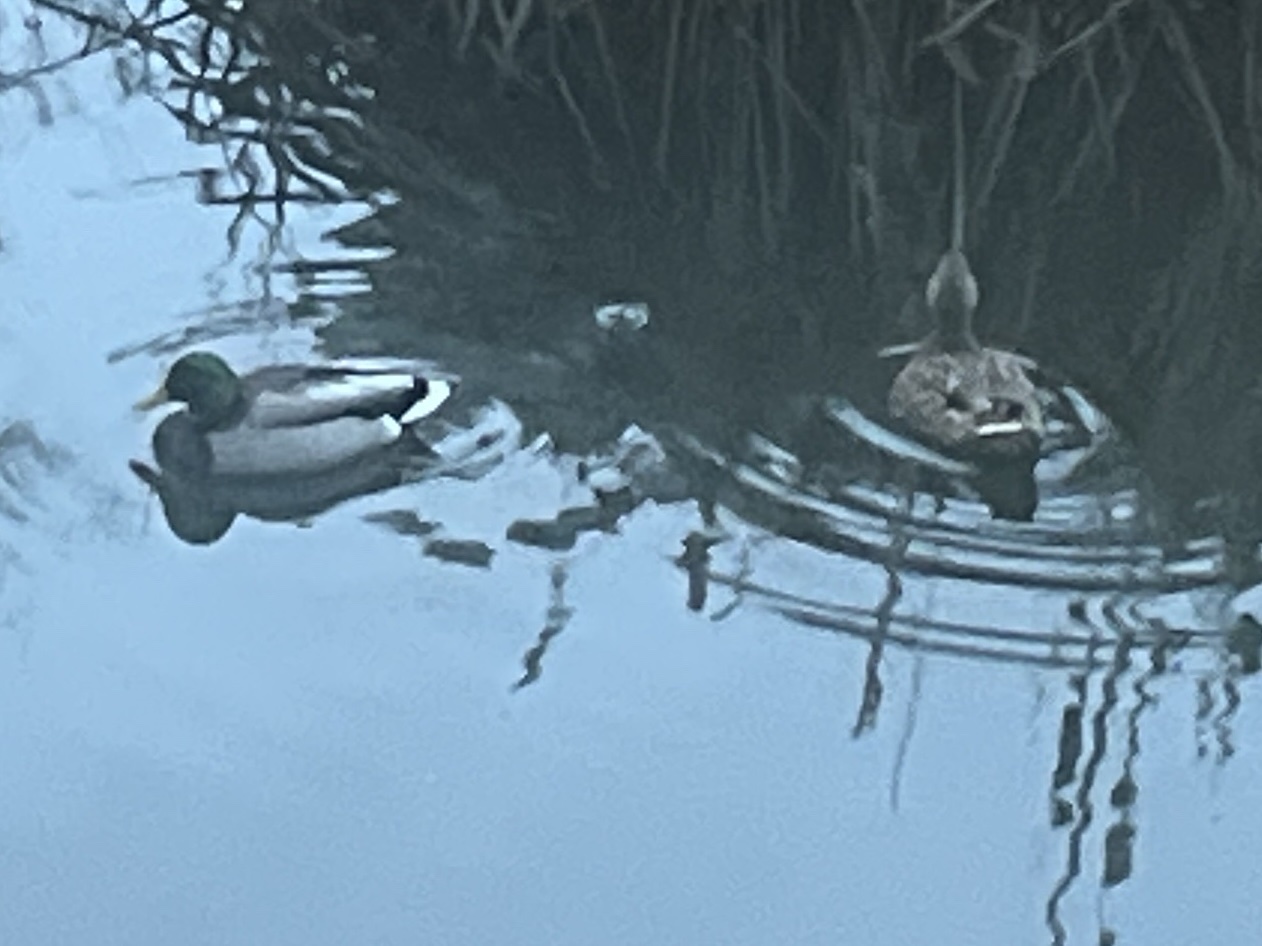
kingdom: Animalia
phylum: Chordata
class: Aves
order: Anseriformes
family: Anatidae
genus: Anas
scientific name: Anas platyrhynchos
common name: Mallard
